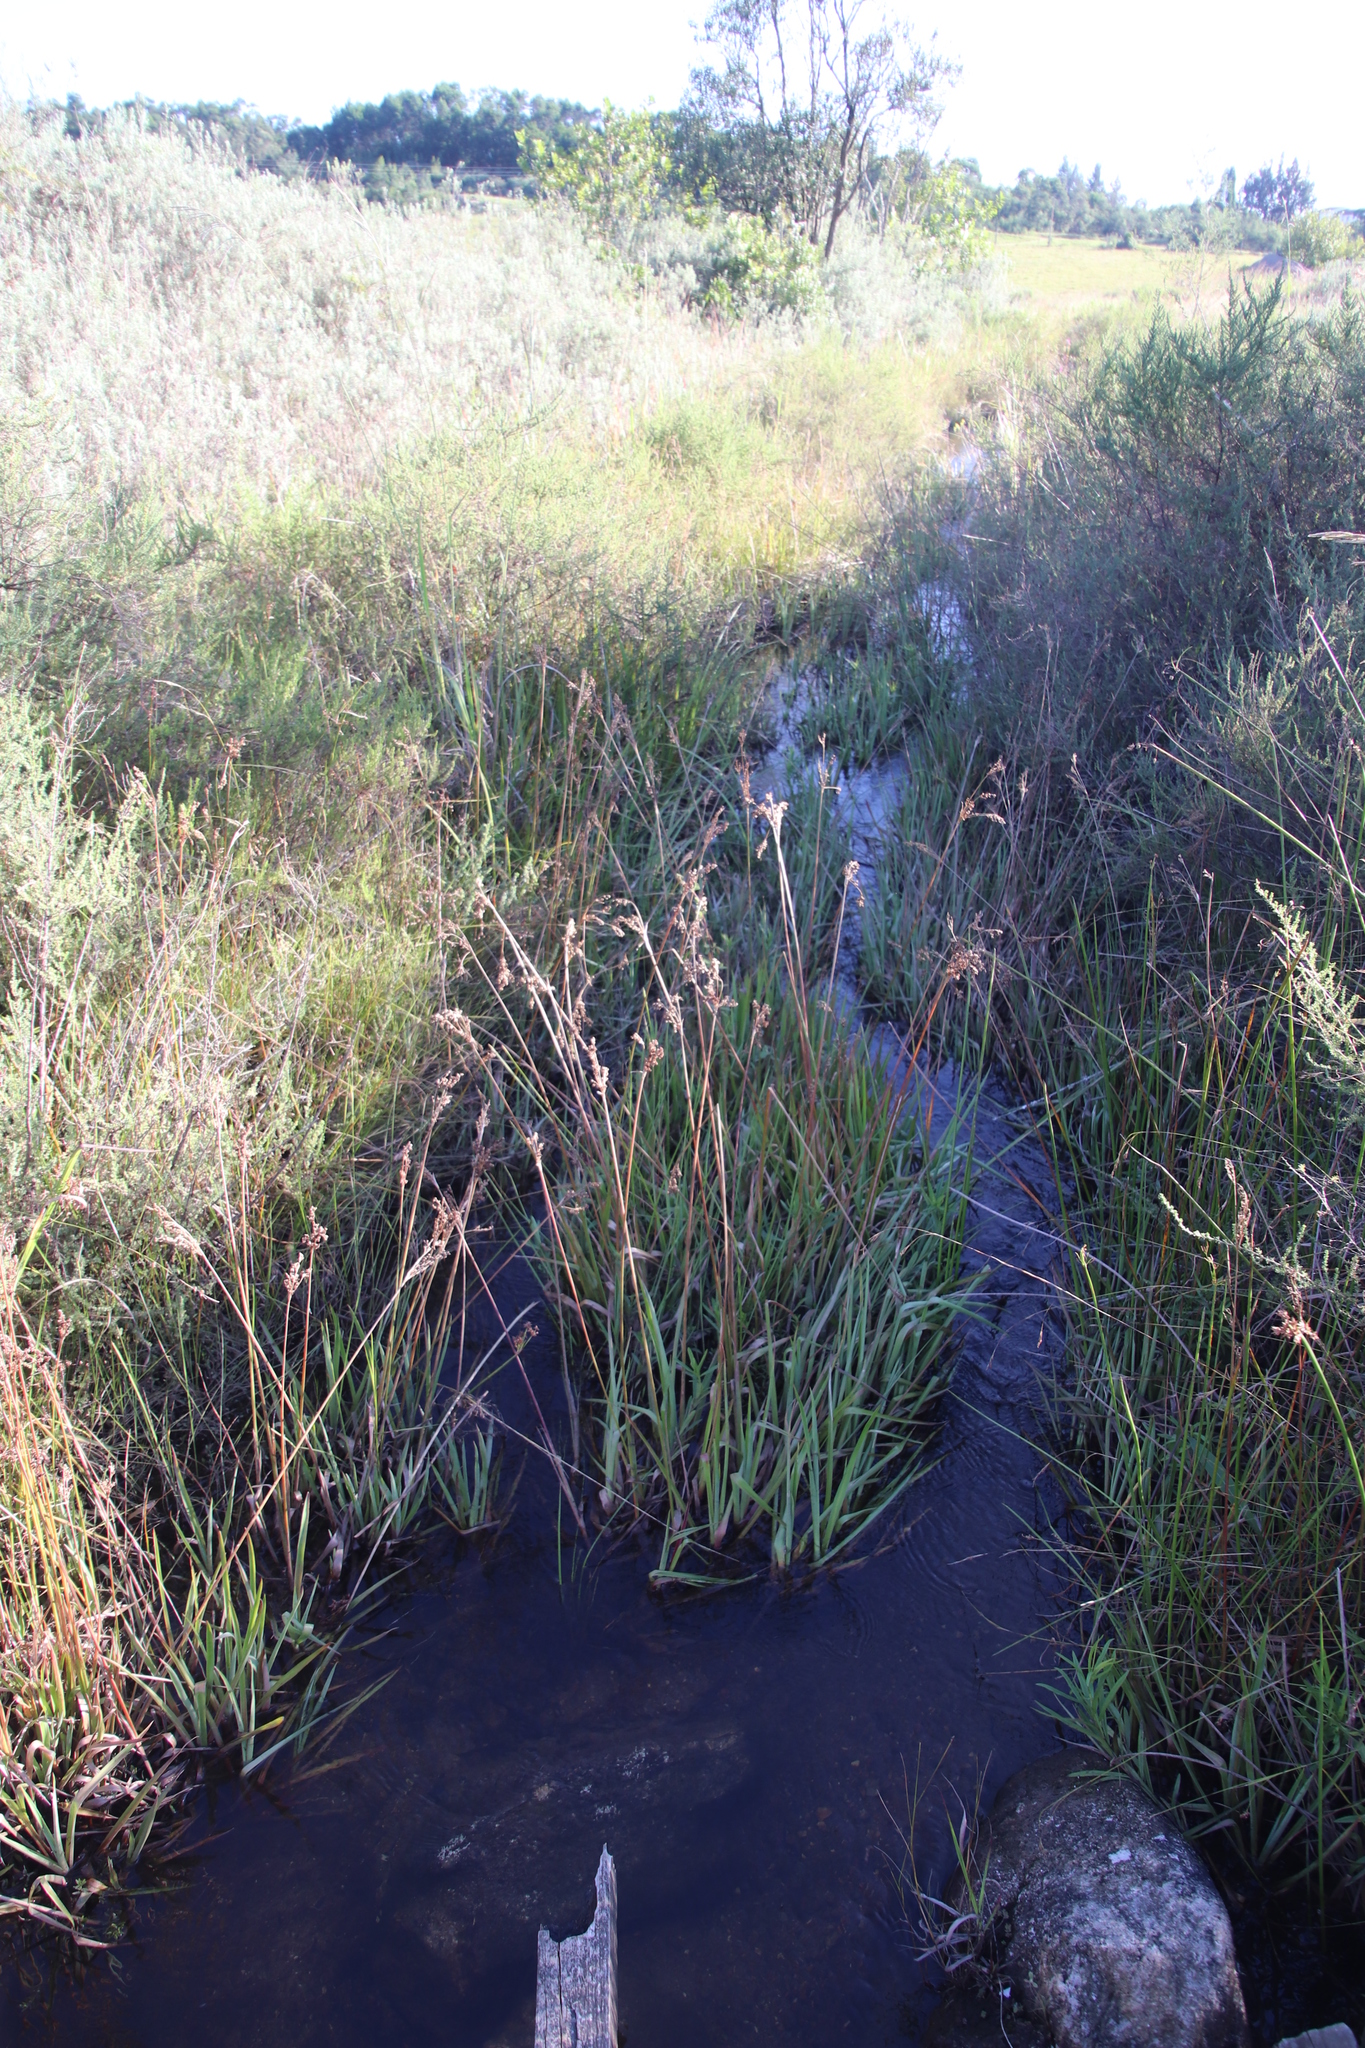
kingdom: Plantae
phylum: Tracheophyta
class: Liliopsida
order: Poales
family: Juncaceae
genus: Juncus
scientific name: Juncus lomatophyllus
